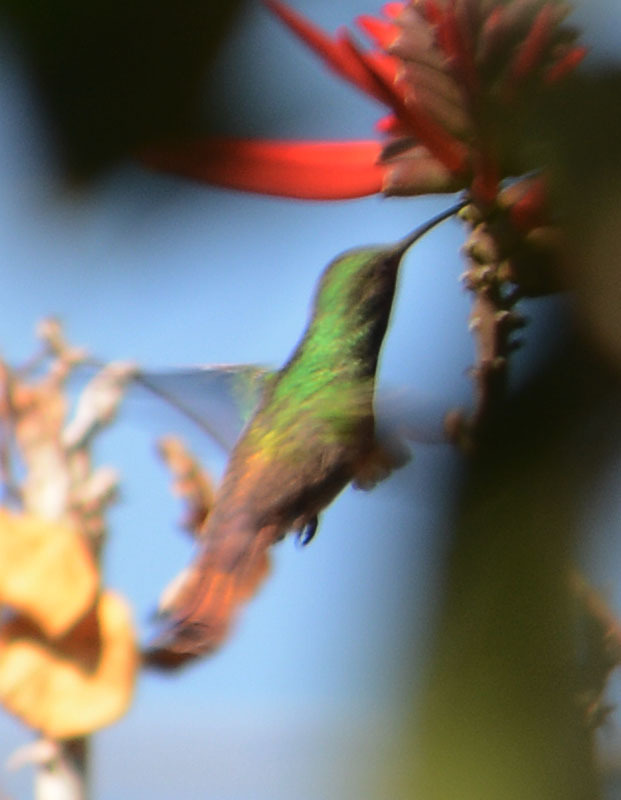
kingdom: Animalia
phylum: Chordata
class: Aves
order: Apodiformes
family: Trochilidae
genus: Saucerottia
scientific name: Saucerottia beryllina
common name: Berylline hummingbird
